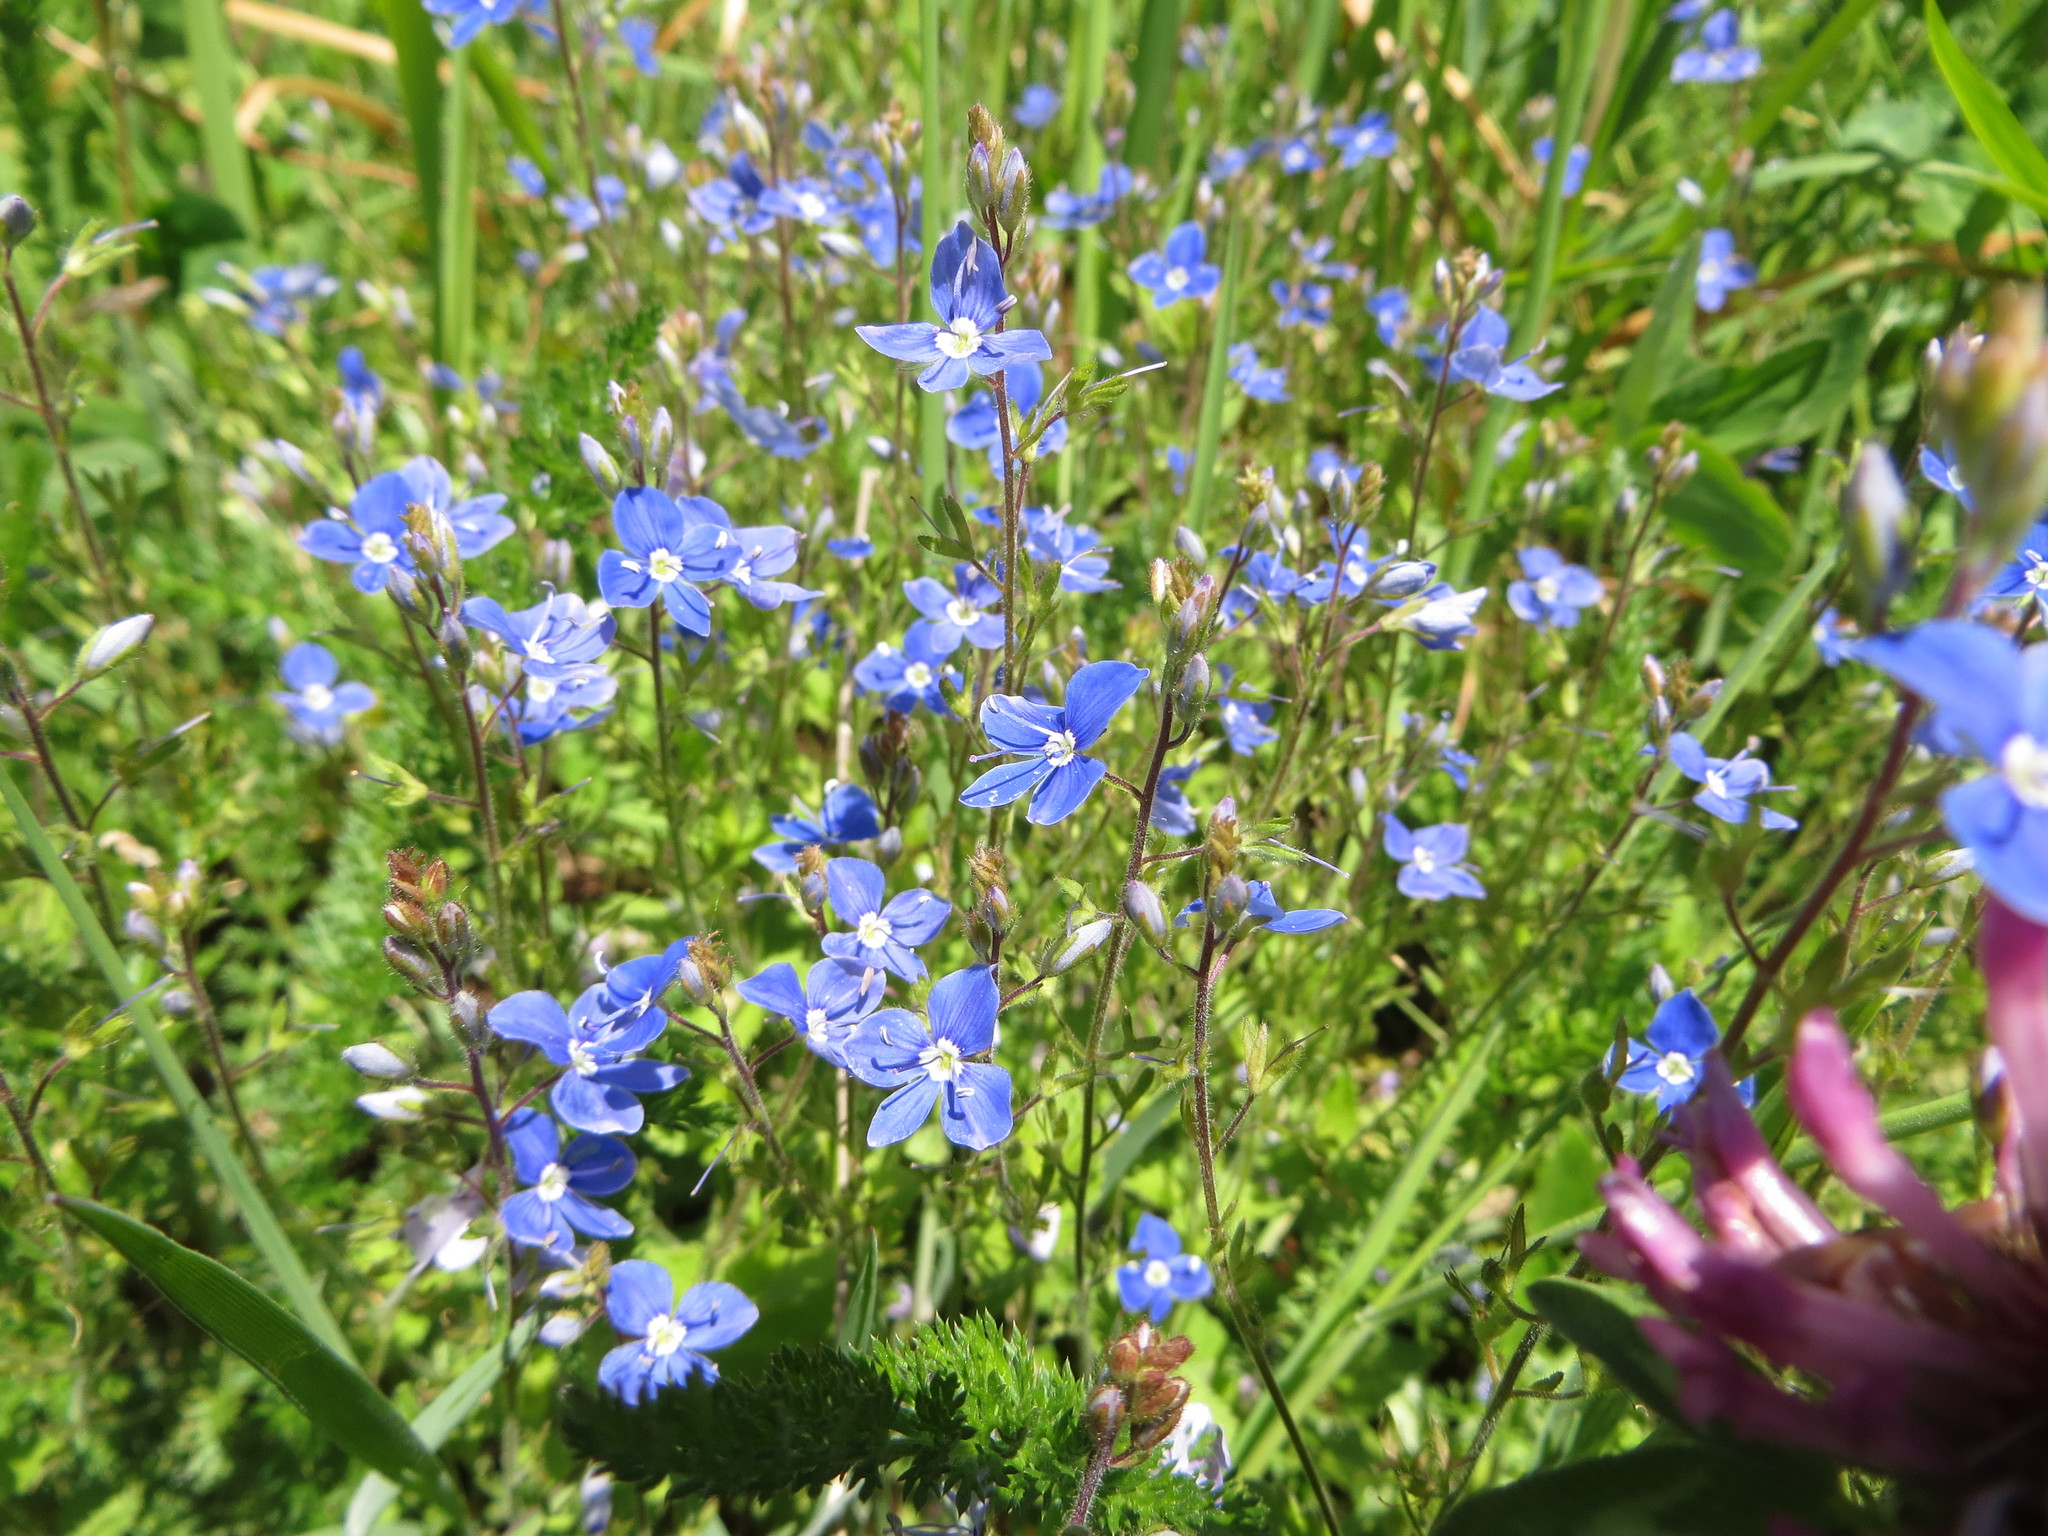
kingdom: Plantae
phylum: Tracheophyta
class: Magnoliopsida
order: Lamiales
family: Plantaginaceae
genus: Veronica
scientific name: Veronica chamaedrys
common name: Germander speedwell
